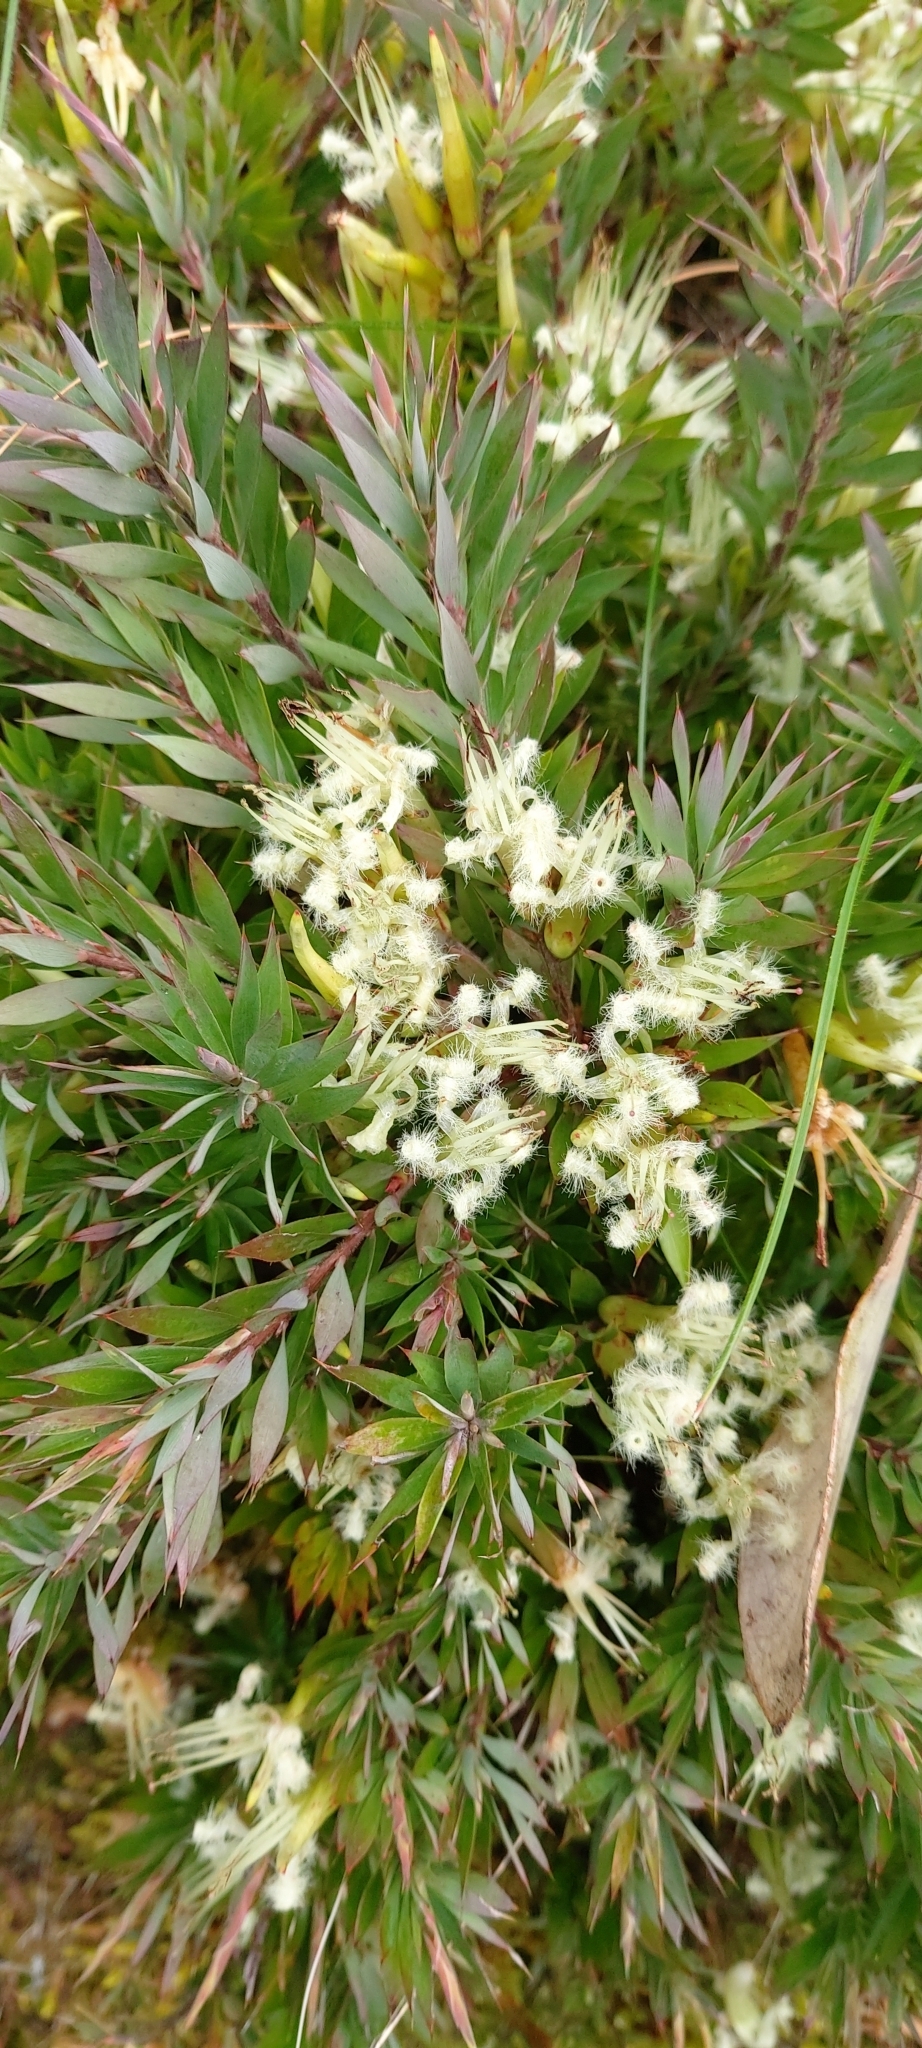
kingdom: Plantae
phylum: Tracheophyta
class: Magnoliopsida
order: Ericales
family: Ericaceae
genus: Styphelia
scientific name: Styphelia adscendens
